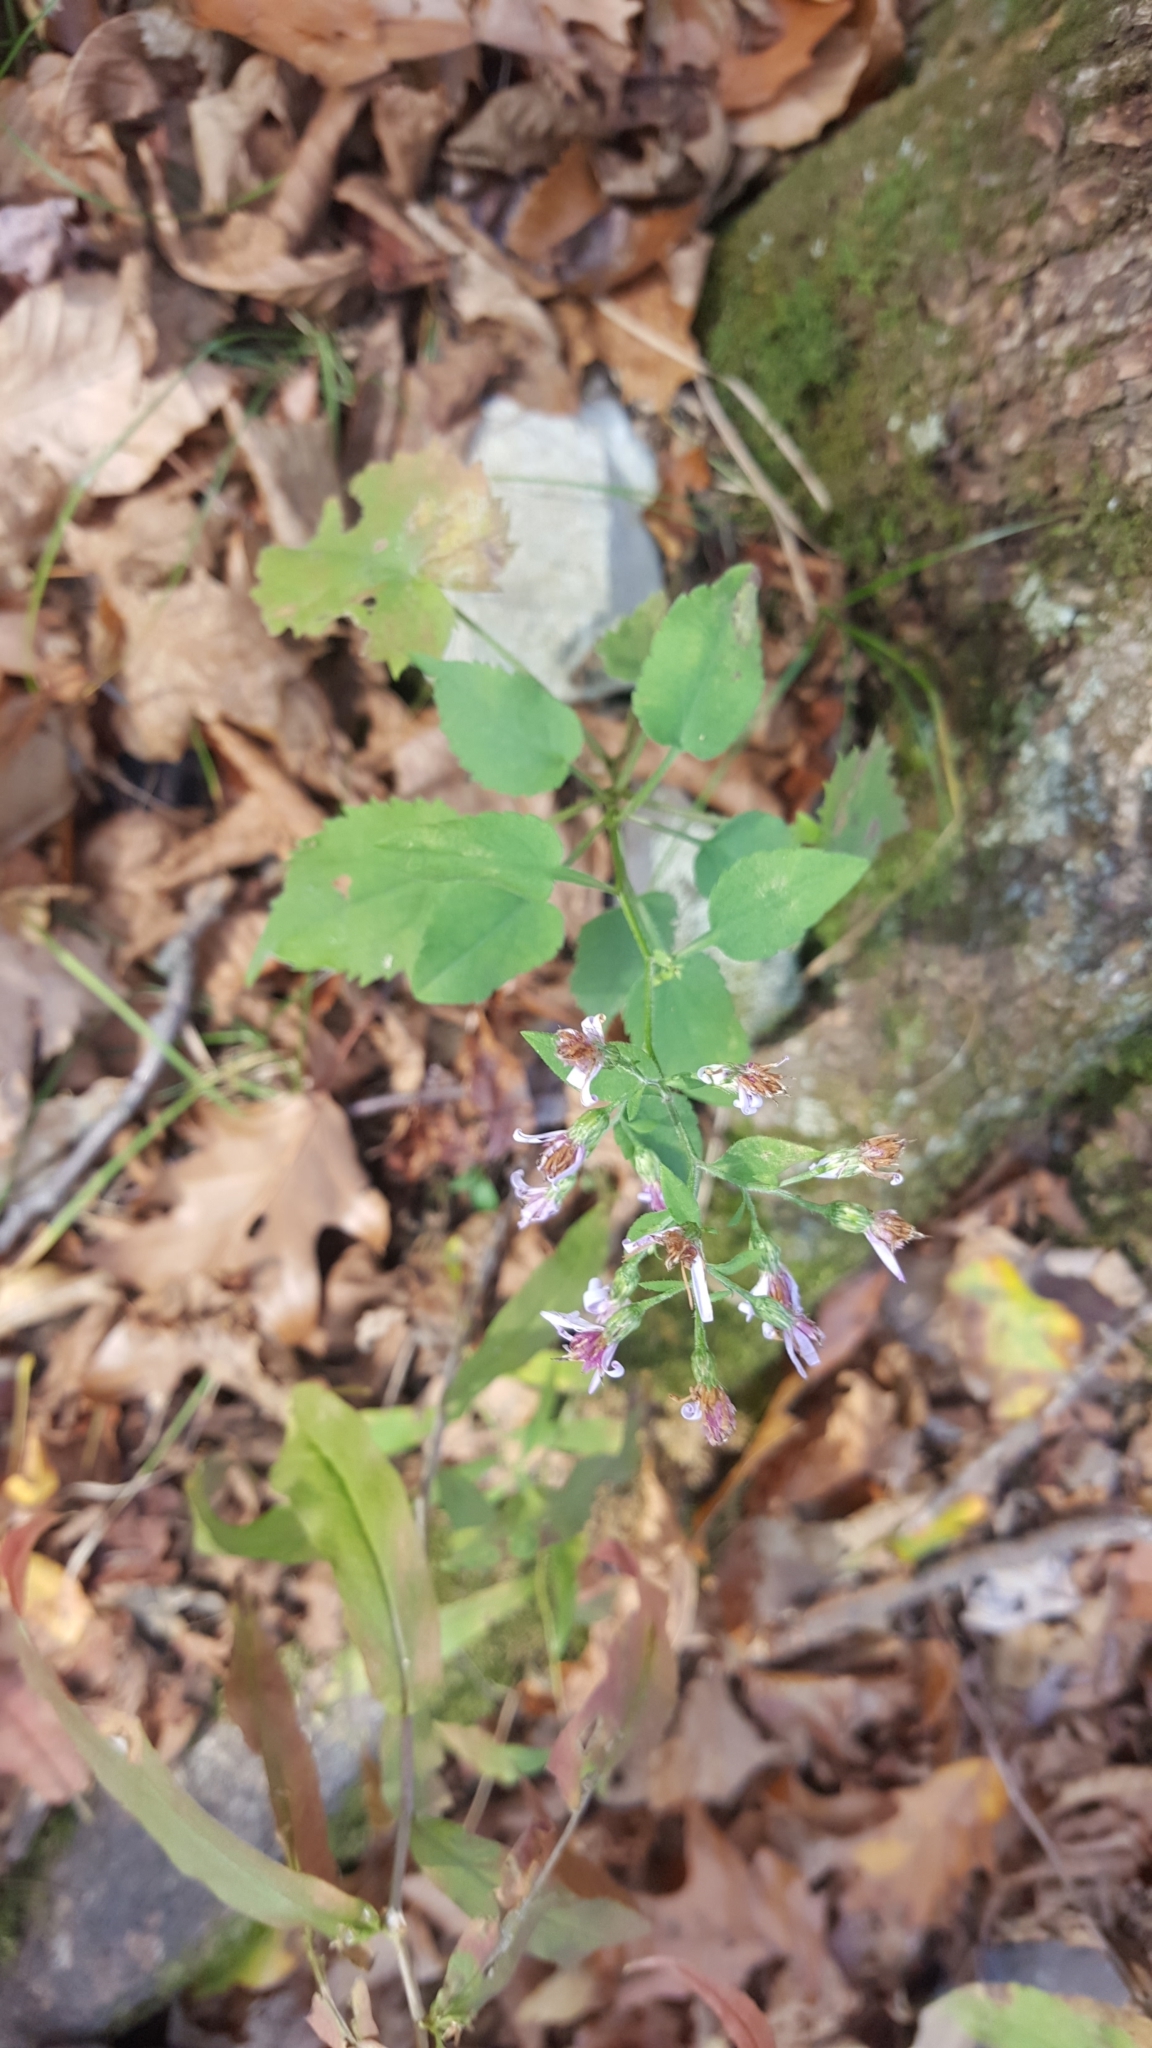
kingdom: Plantae
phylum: Tracheophyta
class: Magnoliopsida
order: Asterales
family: Asteraceae
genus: Symphyotrichum
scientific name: Symphyotrichum cordifolium
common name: Beeweed
